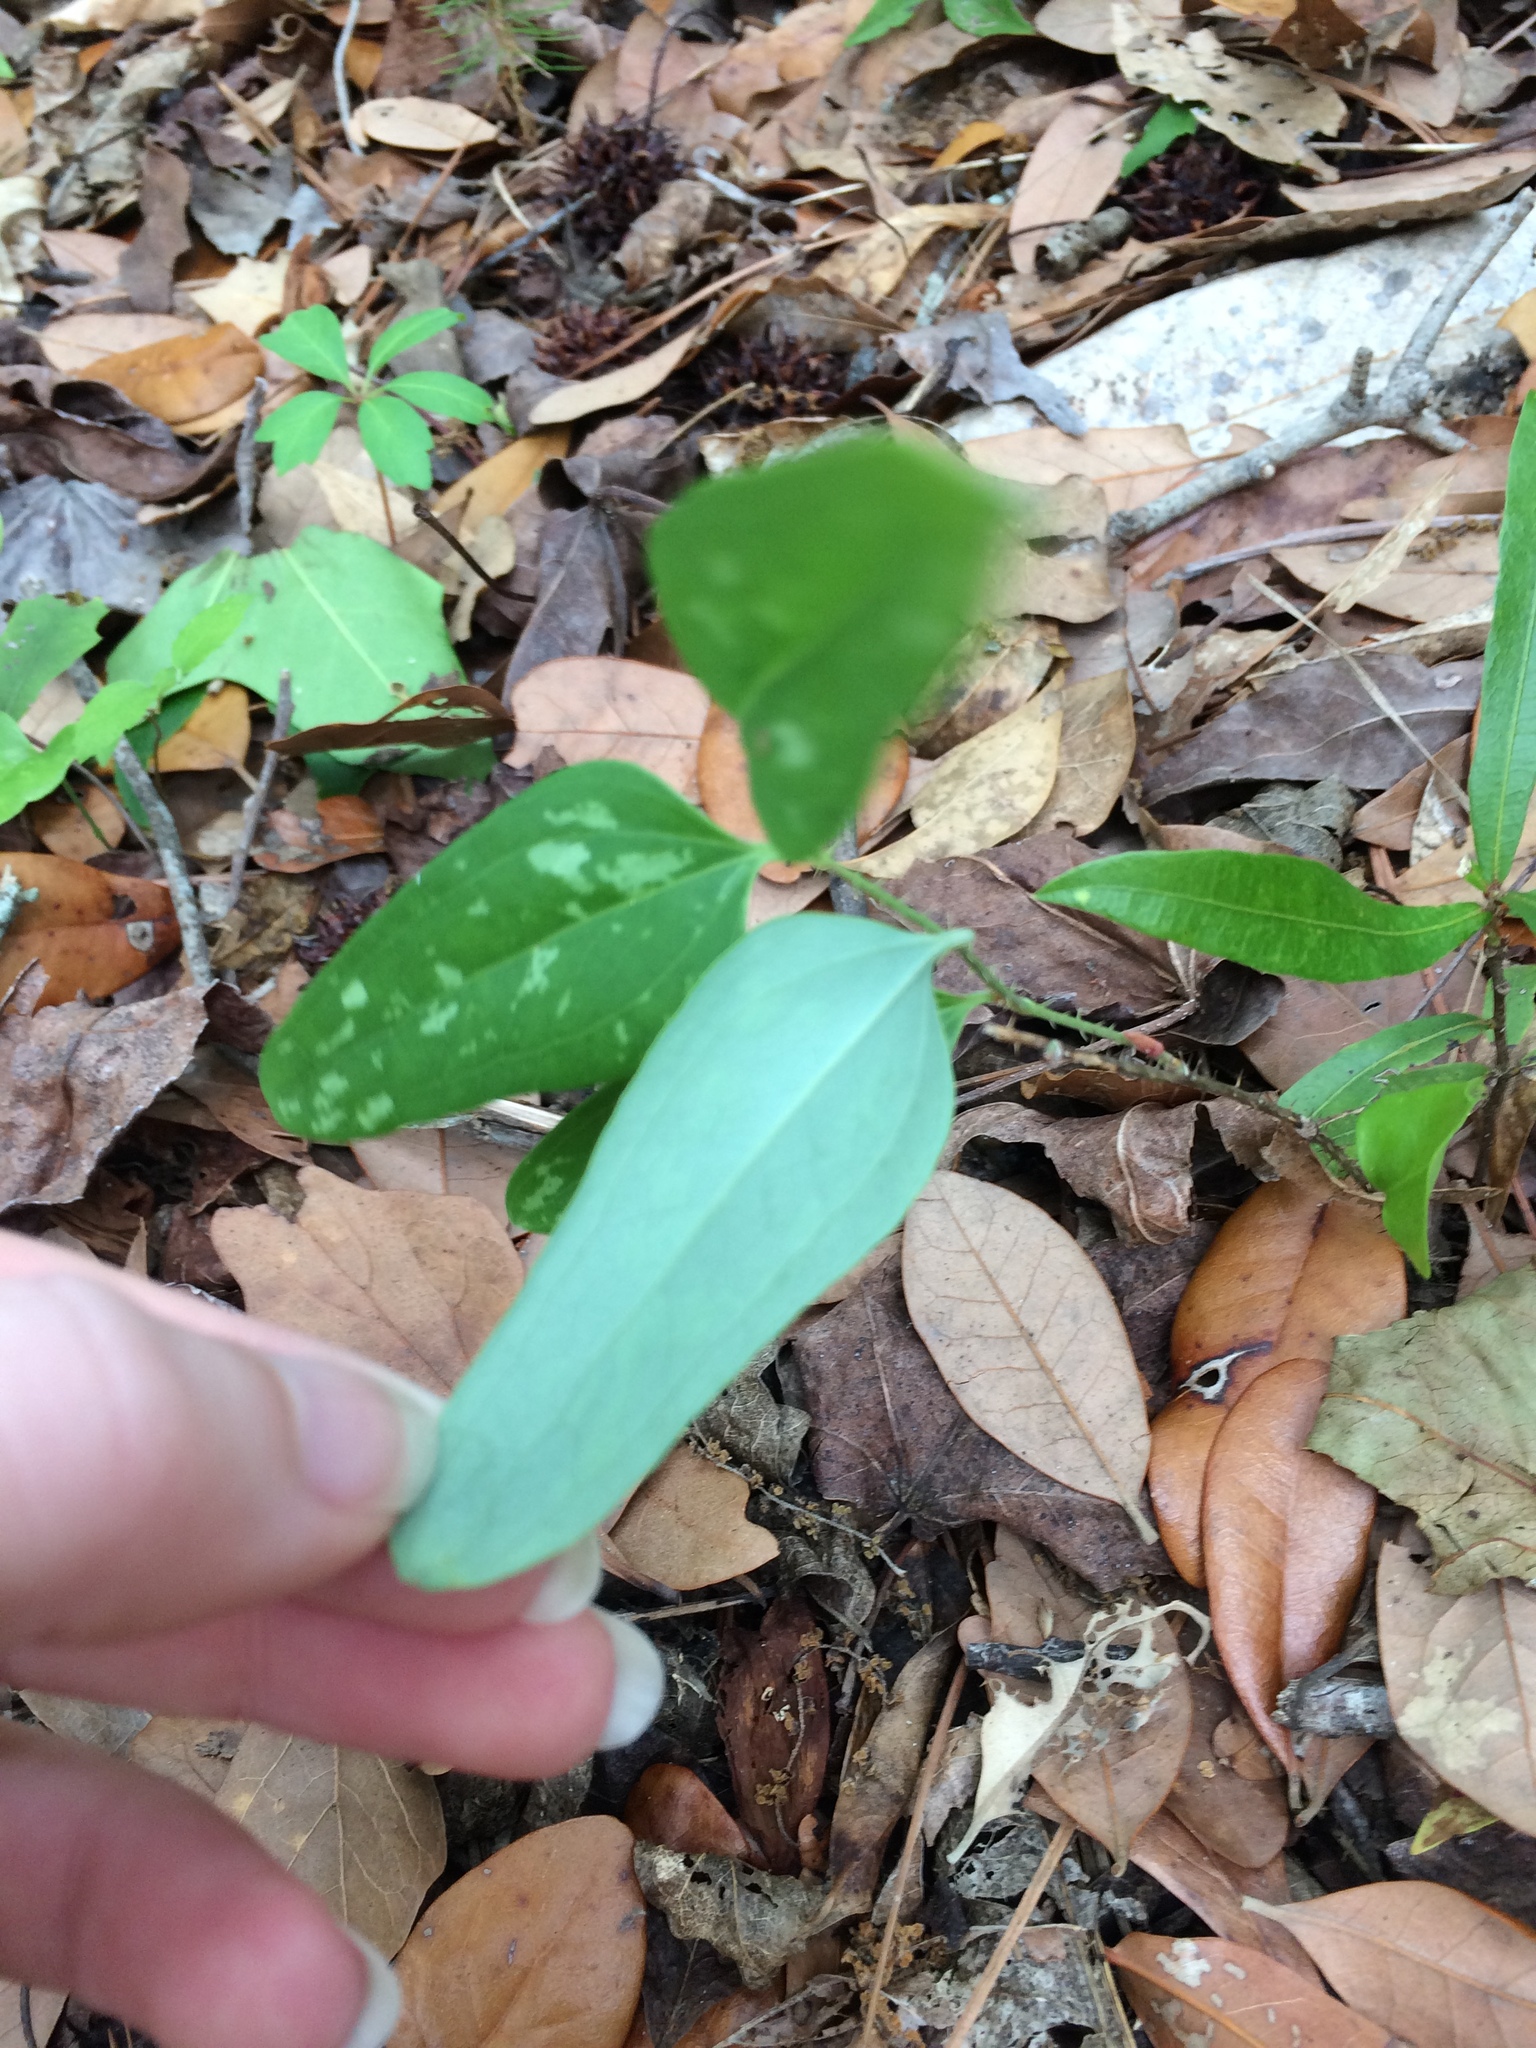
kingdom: Plantae
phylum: Tracheophyta
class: Liliopsida
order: Liliales
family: Smilacaceae
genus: Smilax
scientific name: Smilax glauca
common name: Cat greenbrier
